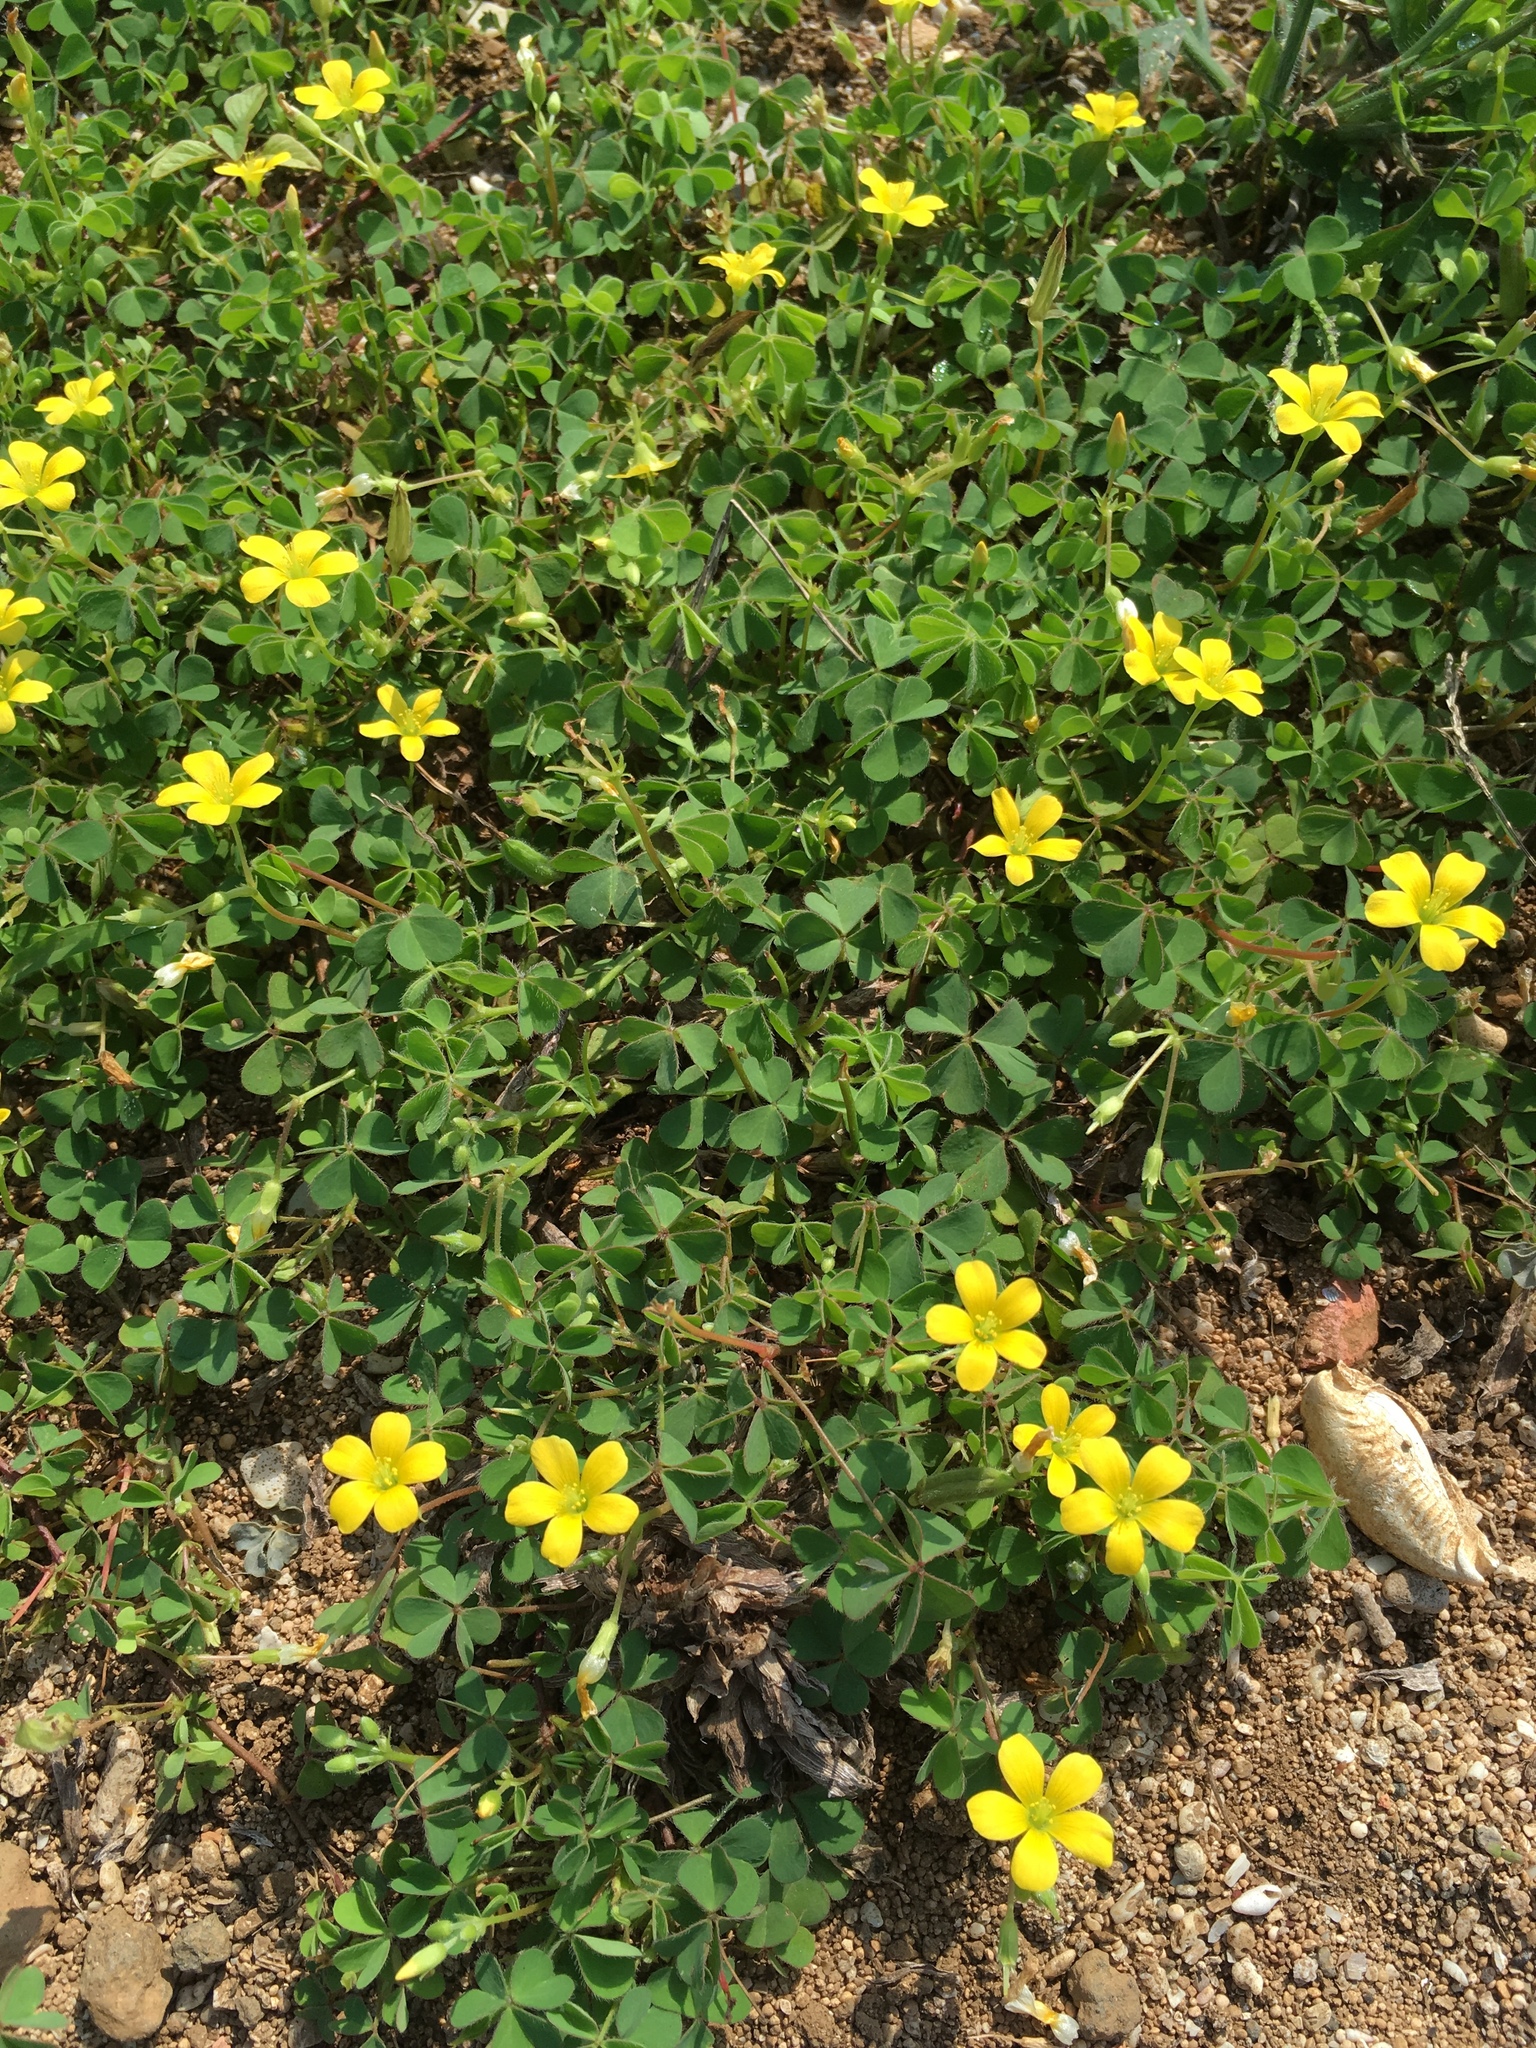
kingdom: Plantae
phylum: Tracheophyta
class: Magnoliopsida
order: Oxalidales
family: Oxalidaceae
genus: Oxalis
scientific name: Oxalis corniculata
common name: Procumbent yellow-sorrel
